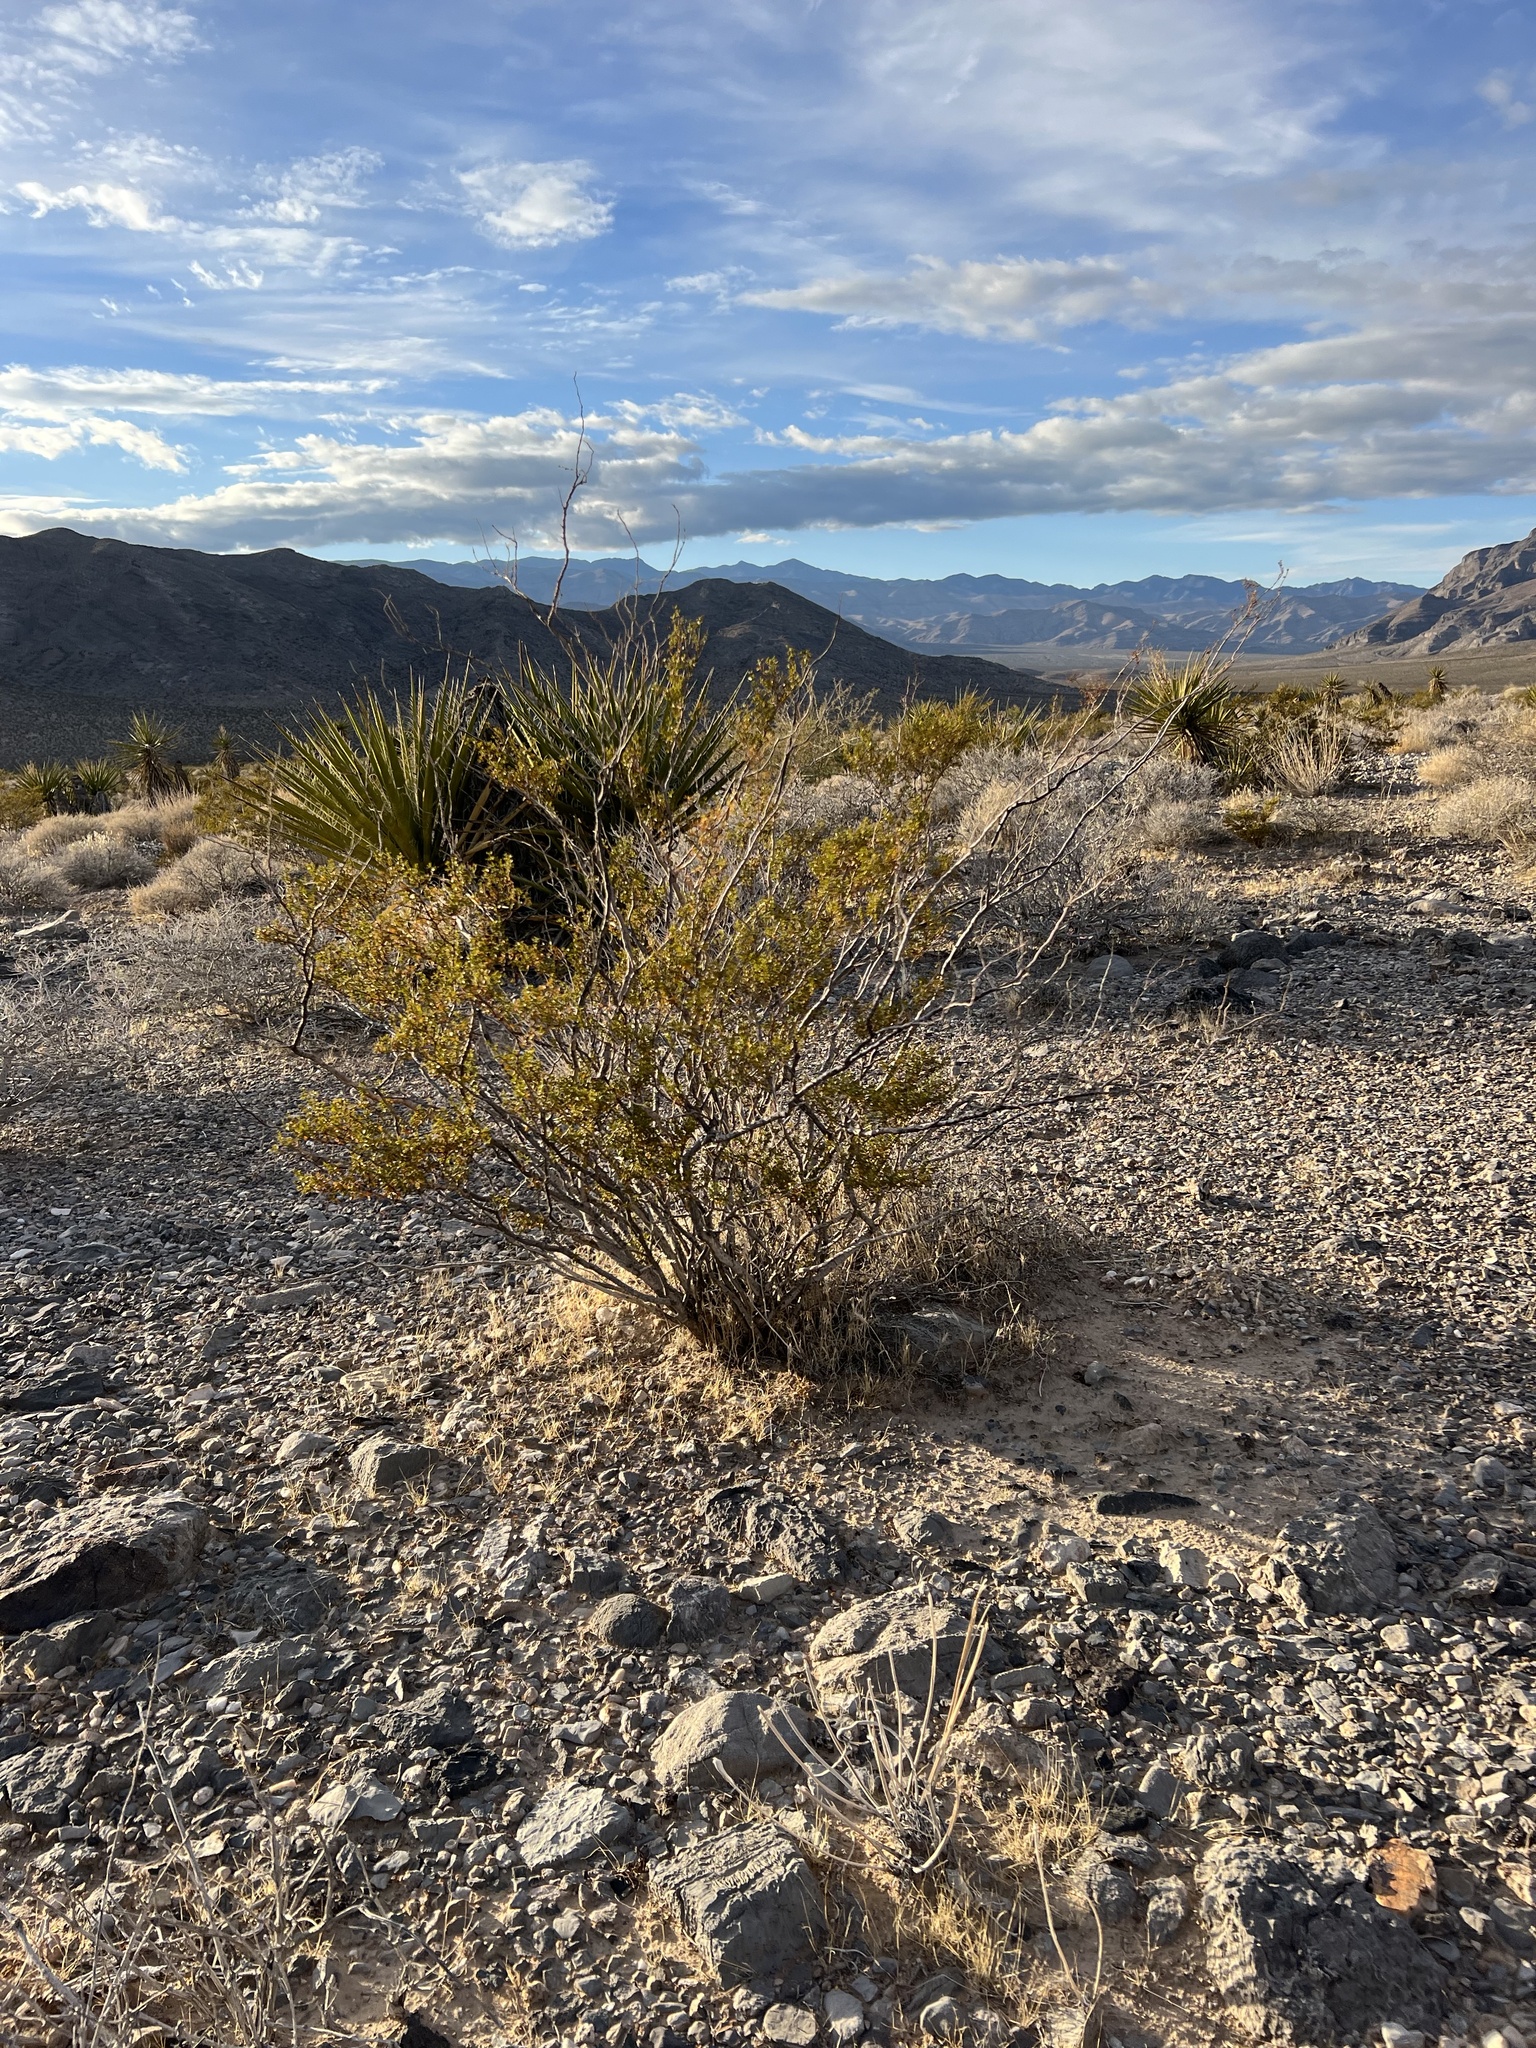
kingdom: Plantae
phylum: Tracheophyta
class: Magnoliopsida
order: Zygophyllales
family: Zygophyllaceae
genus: Larrea
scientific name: Larrea tridentata
